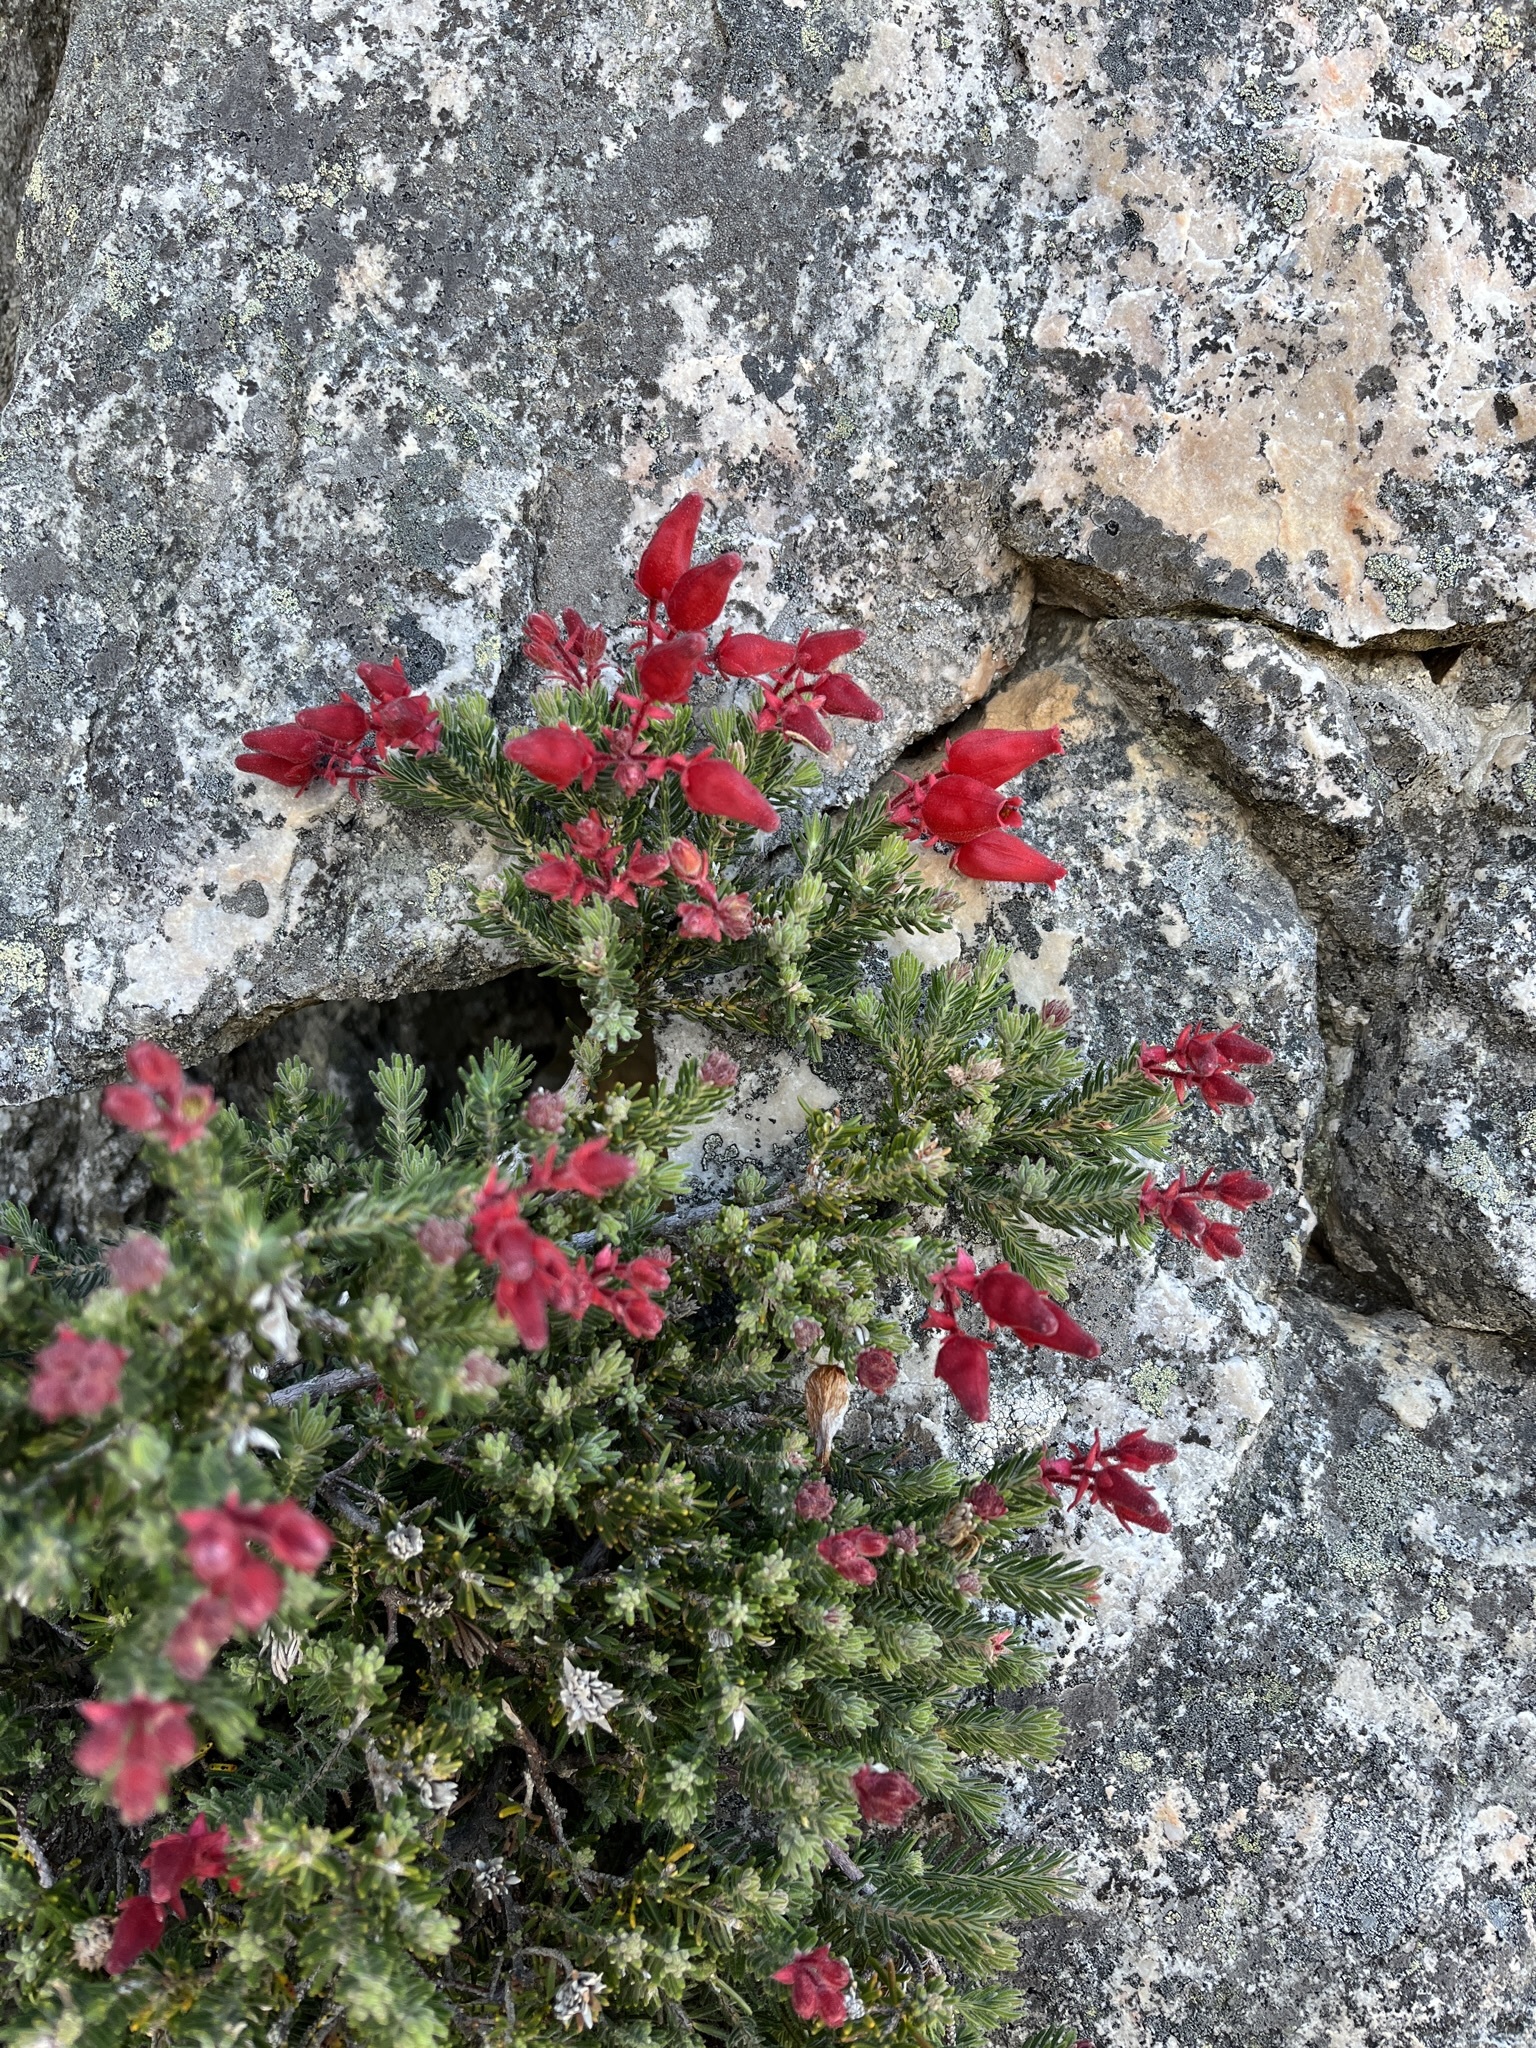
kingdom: Plantae
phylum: Tracheophyta
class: Magnoliopsida
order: Ericales
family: Ericaceae
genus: Erica
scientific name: Erica cameronii
